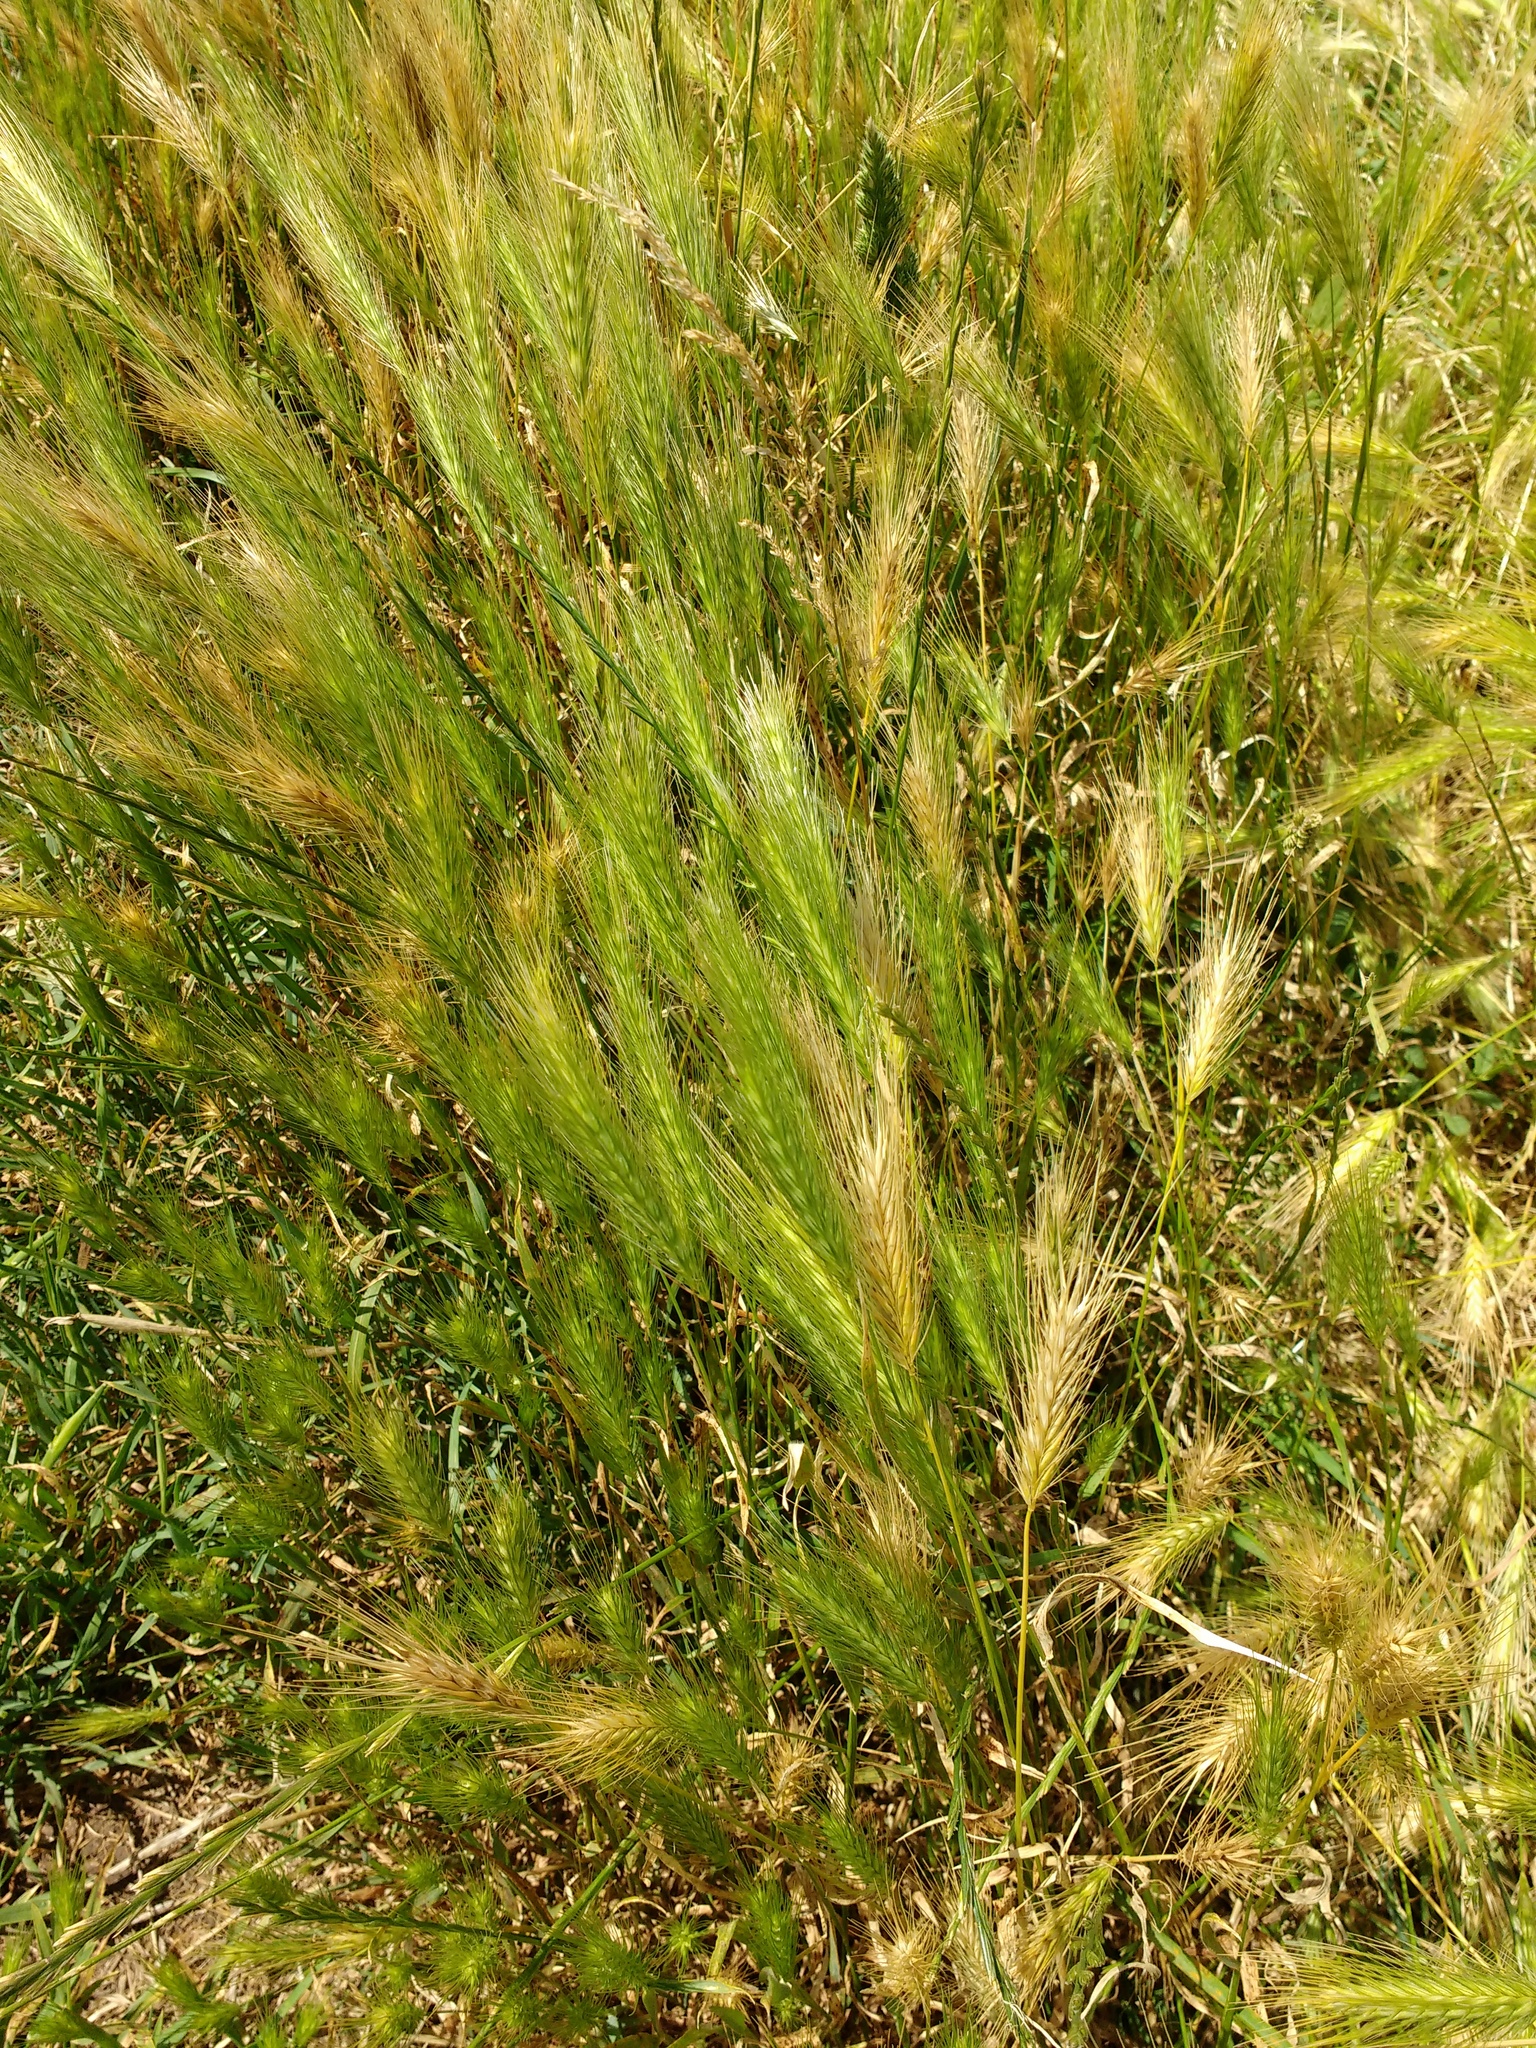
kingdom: Plantae
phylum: Tracheophyta
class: Liliopsida
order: Poales
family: Poaceae
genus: Hordeum
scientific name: Hordeum vulgare
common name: Common barley
